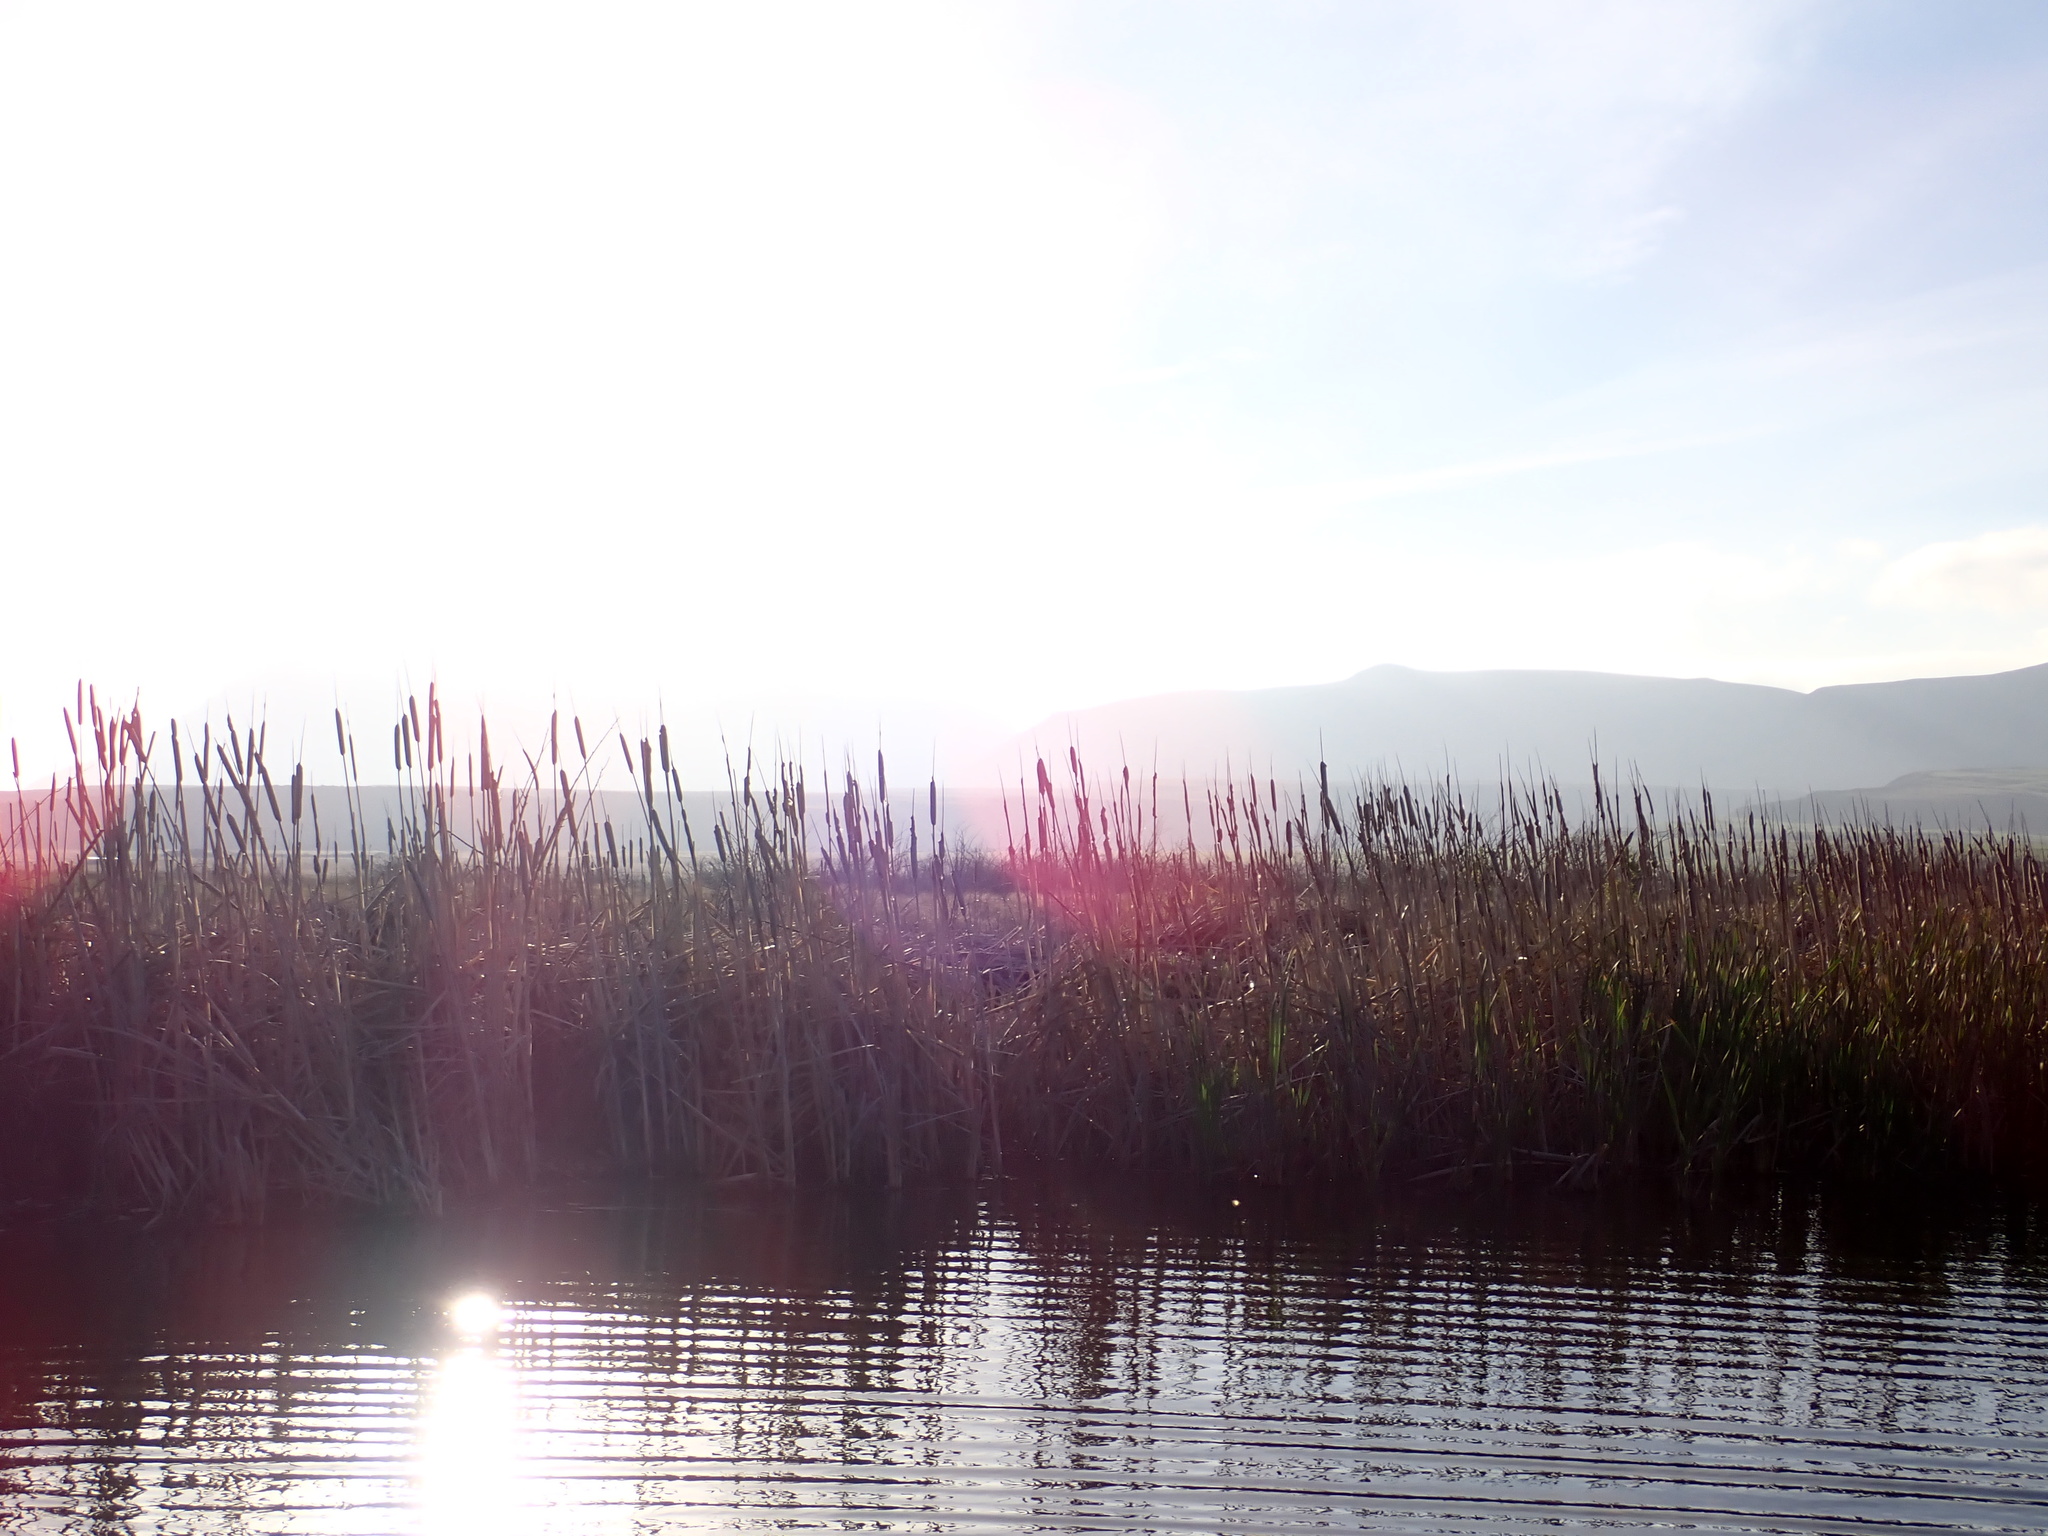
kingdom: Plantae
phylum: Tracheophyta
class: Liliopsida
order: Poales
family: Typhaceae
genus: Typha
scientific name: Typha orientalis
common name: Bullrush
